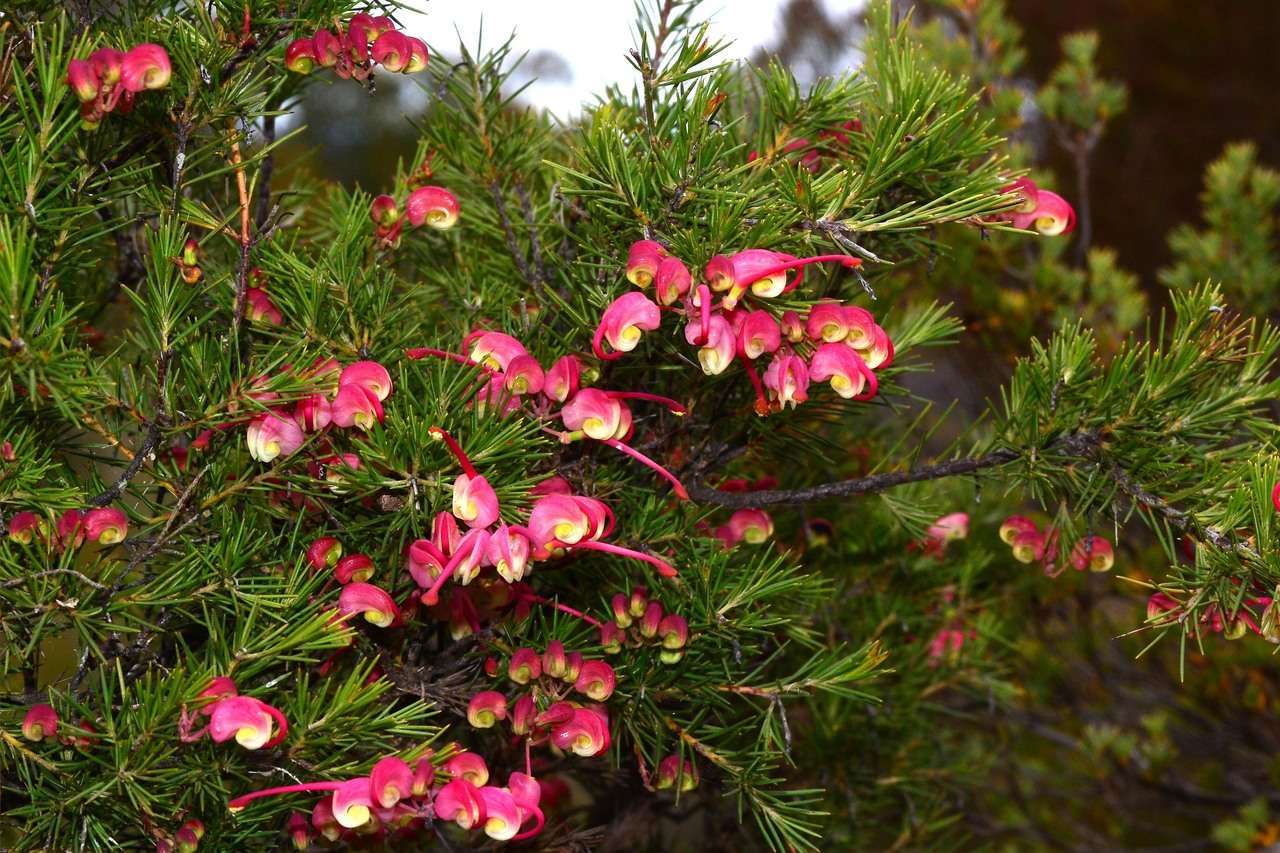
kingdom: Plantae
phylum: Tracheophyta
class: Magnoliopsida
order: Proteales
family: Proteaceae
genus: Grevillea
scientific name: Grevillea rosmarinifolia
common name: Rosemary grevillea
